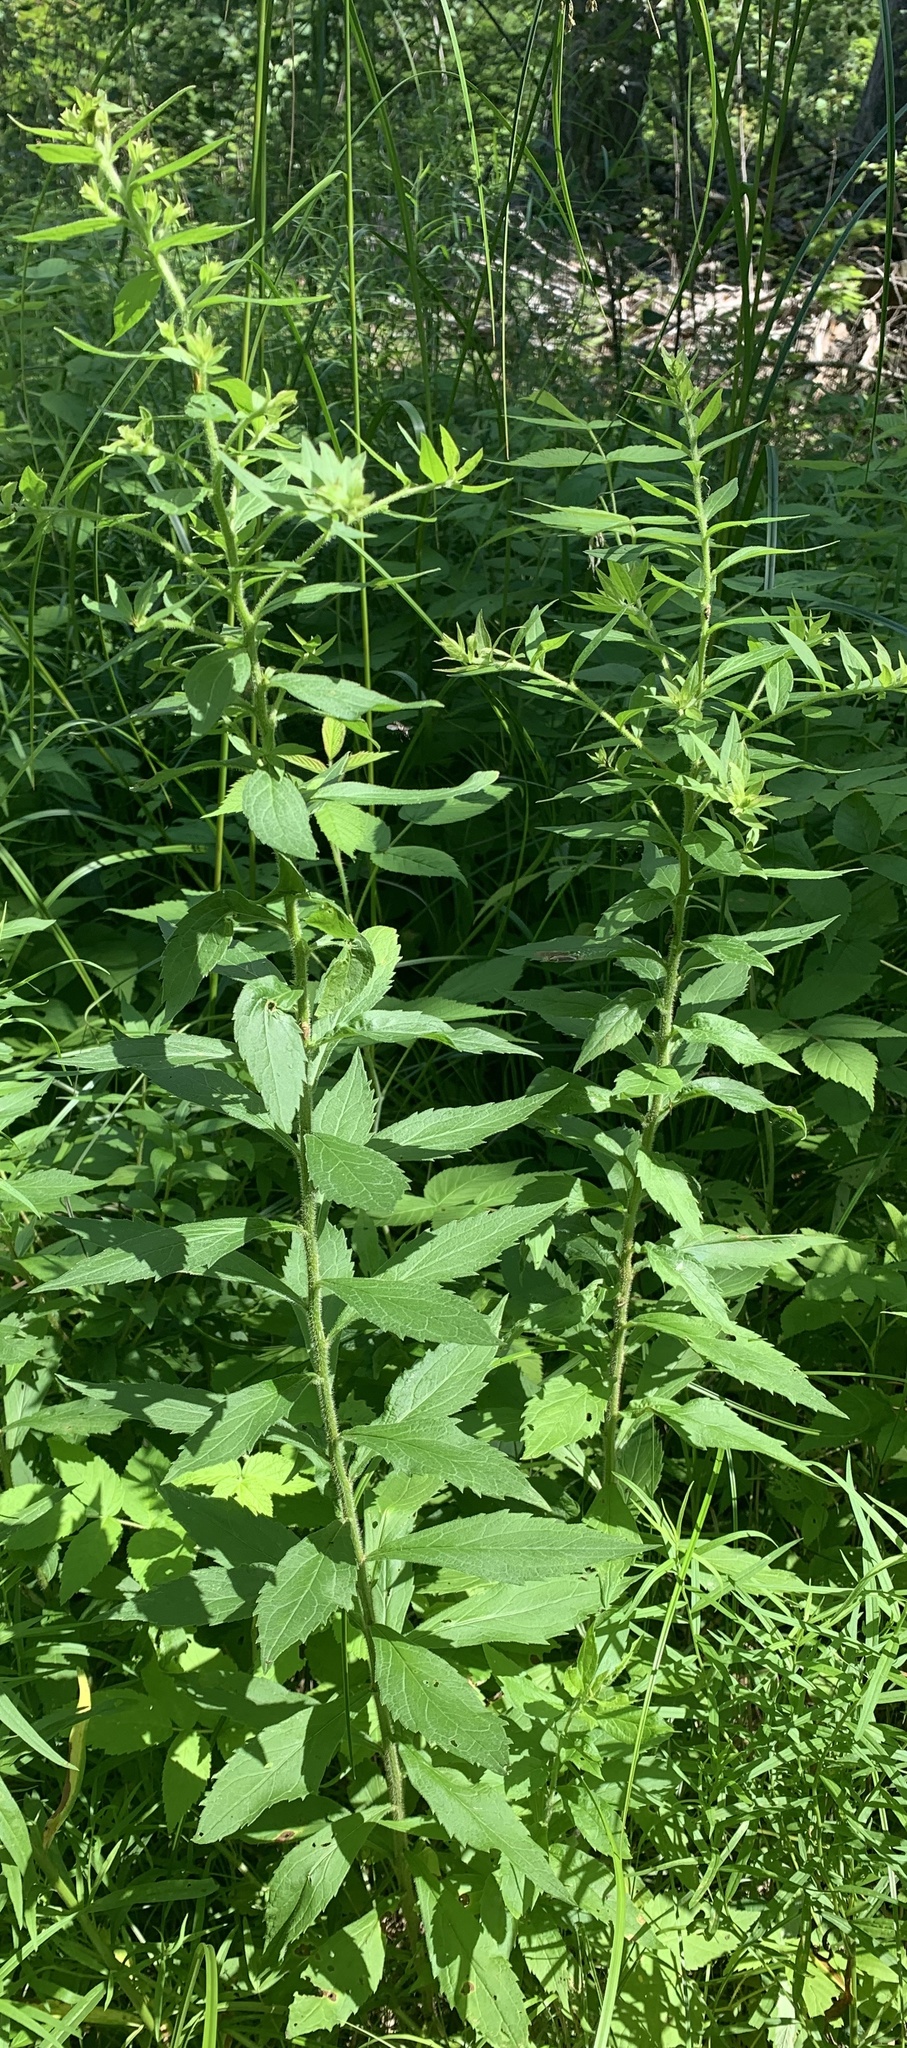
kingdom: Plantae
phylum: Tracheophyta
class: Magnoliopsida
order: Asterales
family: Asteraceae
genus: Solidago
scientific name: Solidago rugosa
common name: Rough-stemmed goldenrod
